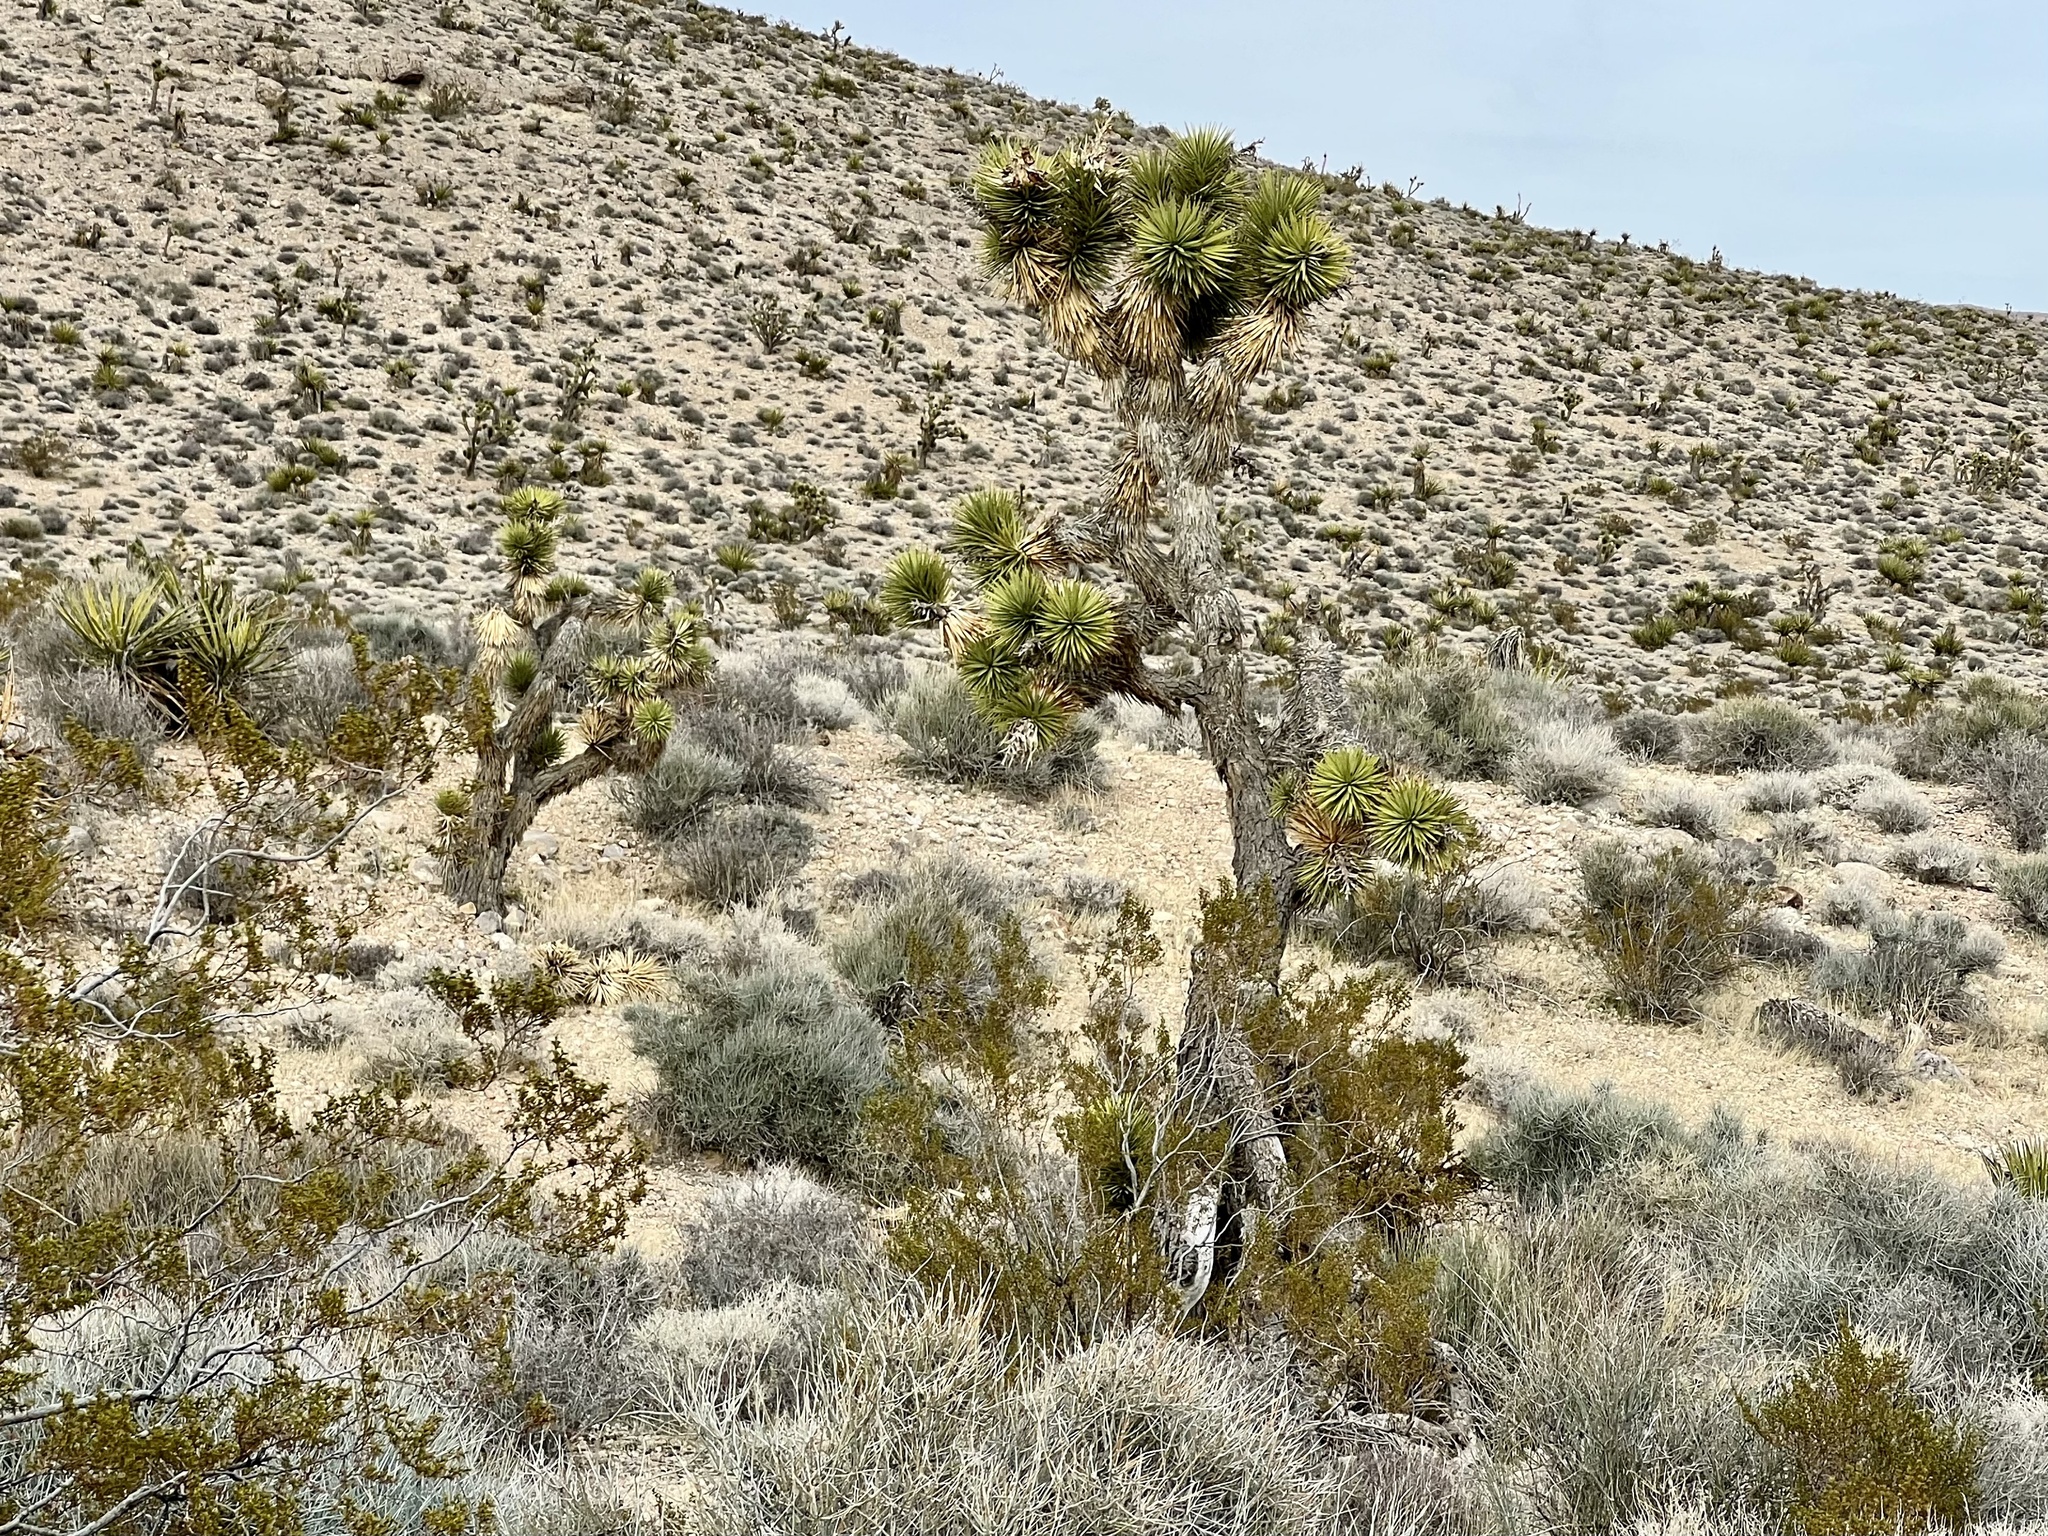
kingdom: Plantae
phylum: Tracheophyta
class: Liliopsida
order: Asparagales
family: Asparagaceae
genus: Yucca
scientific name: Yucca brevifolia
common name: Joshua tree
